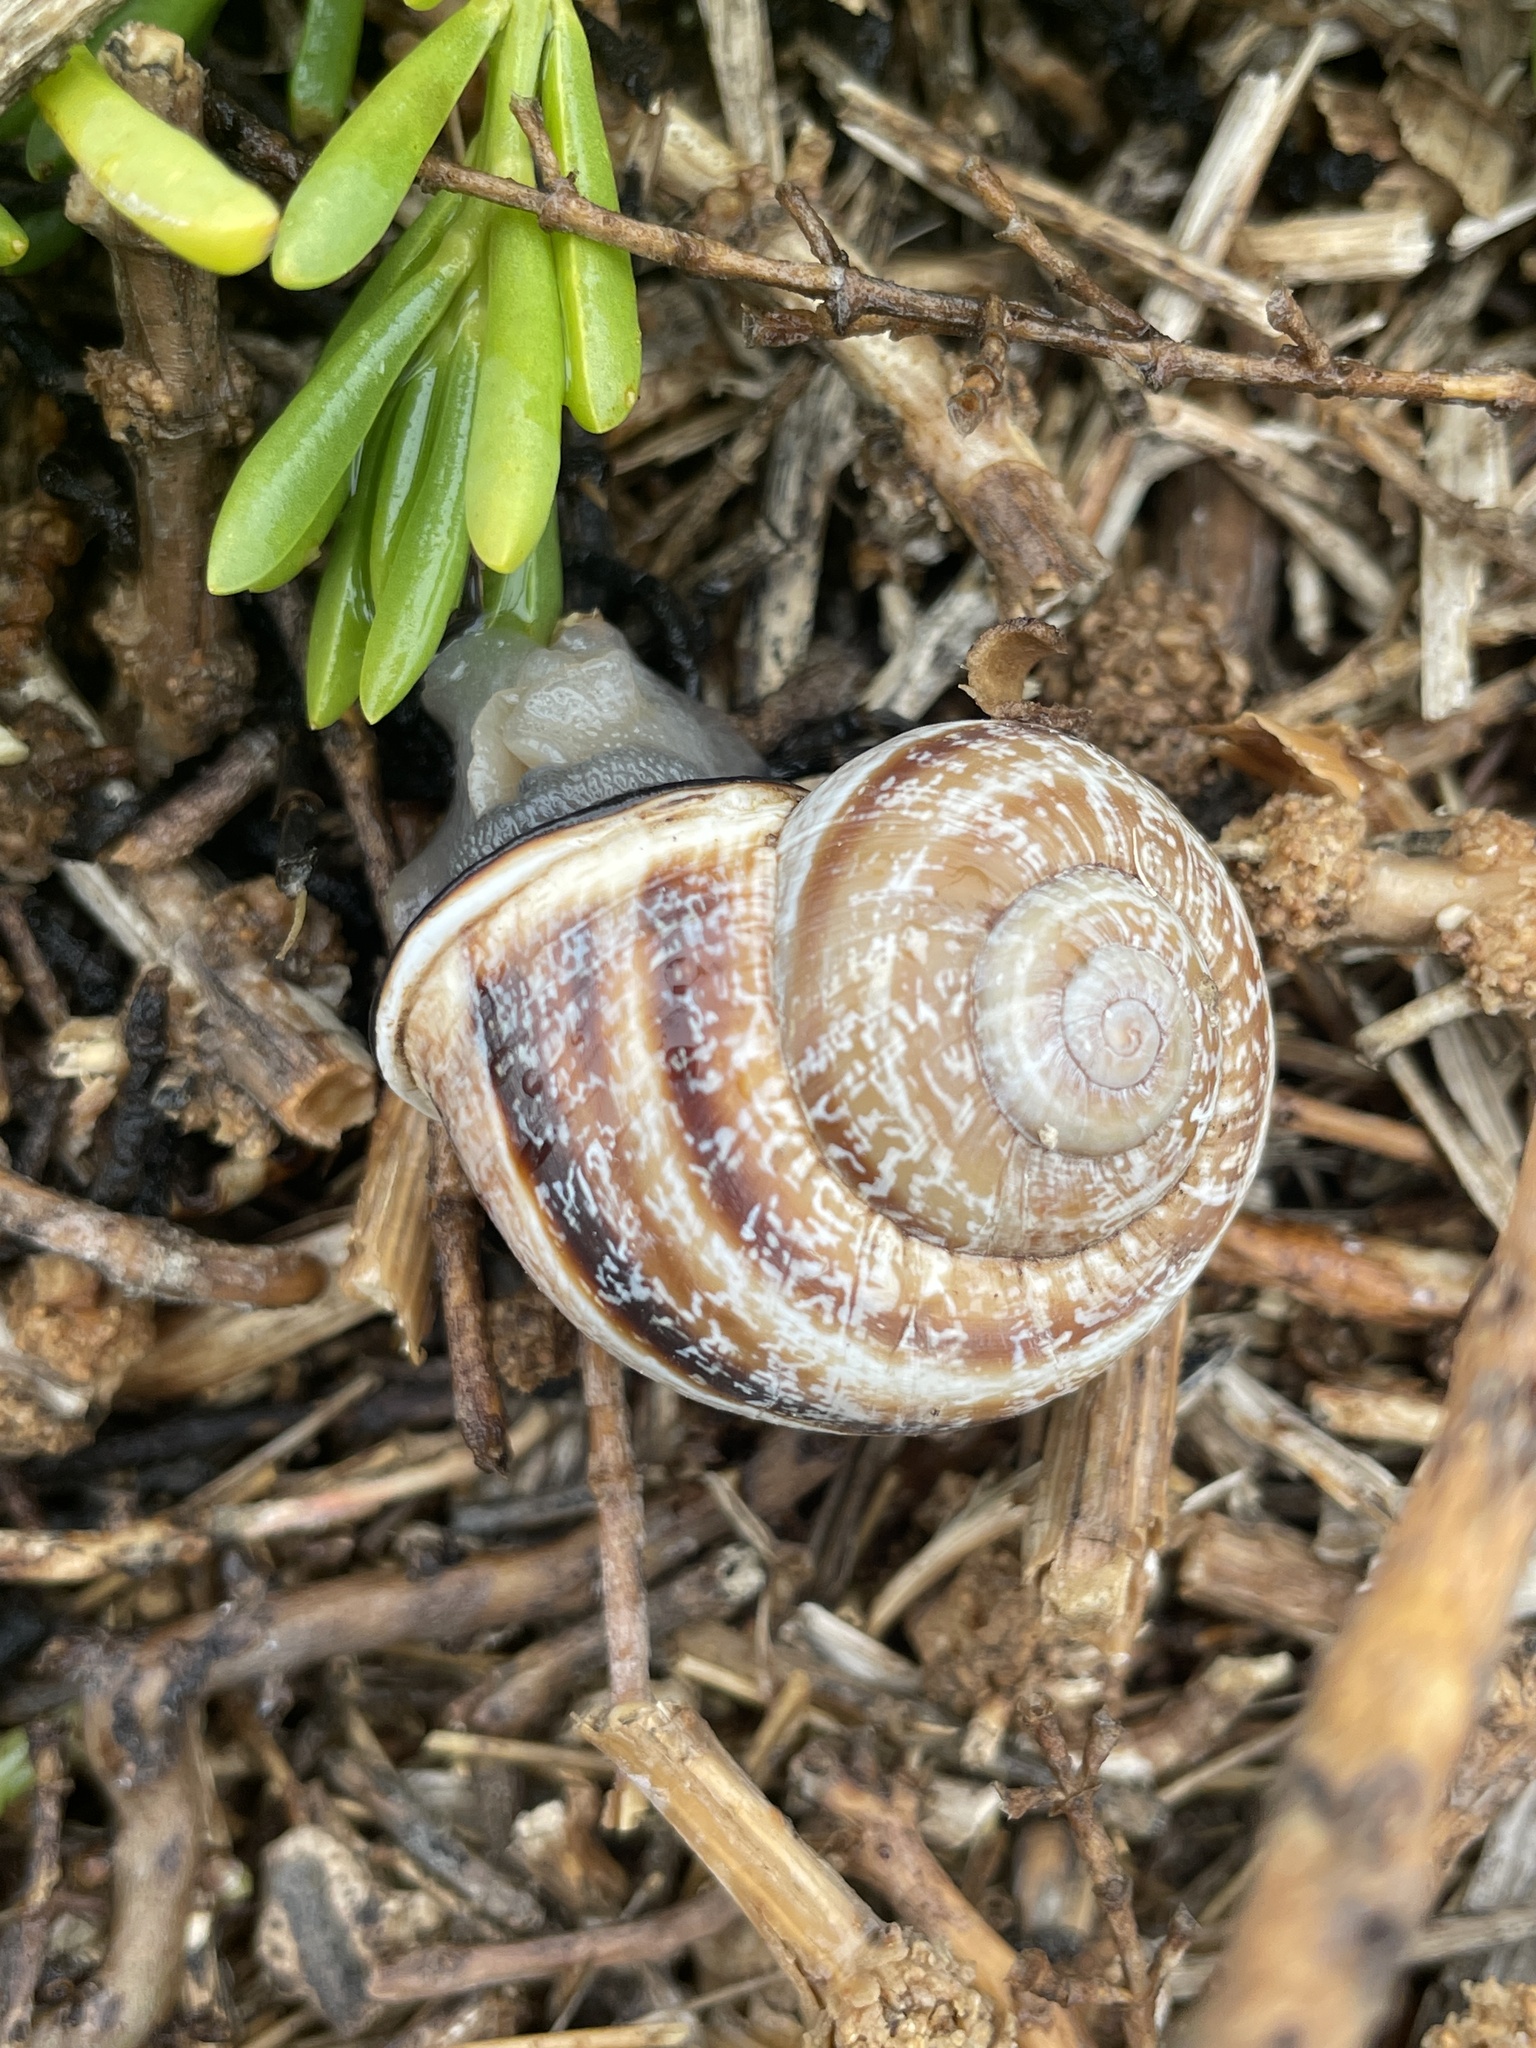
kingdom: Animalia
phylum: Mollusca
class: Gastropoda
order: Stylommatophora
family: Helicidae
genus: Otala
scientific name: Otala lactea
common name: Milk snail
